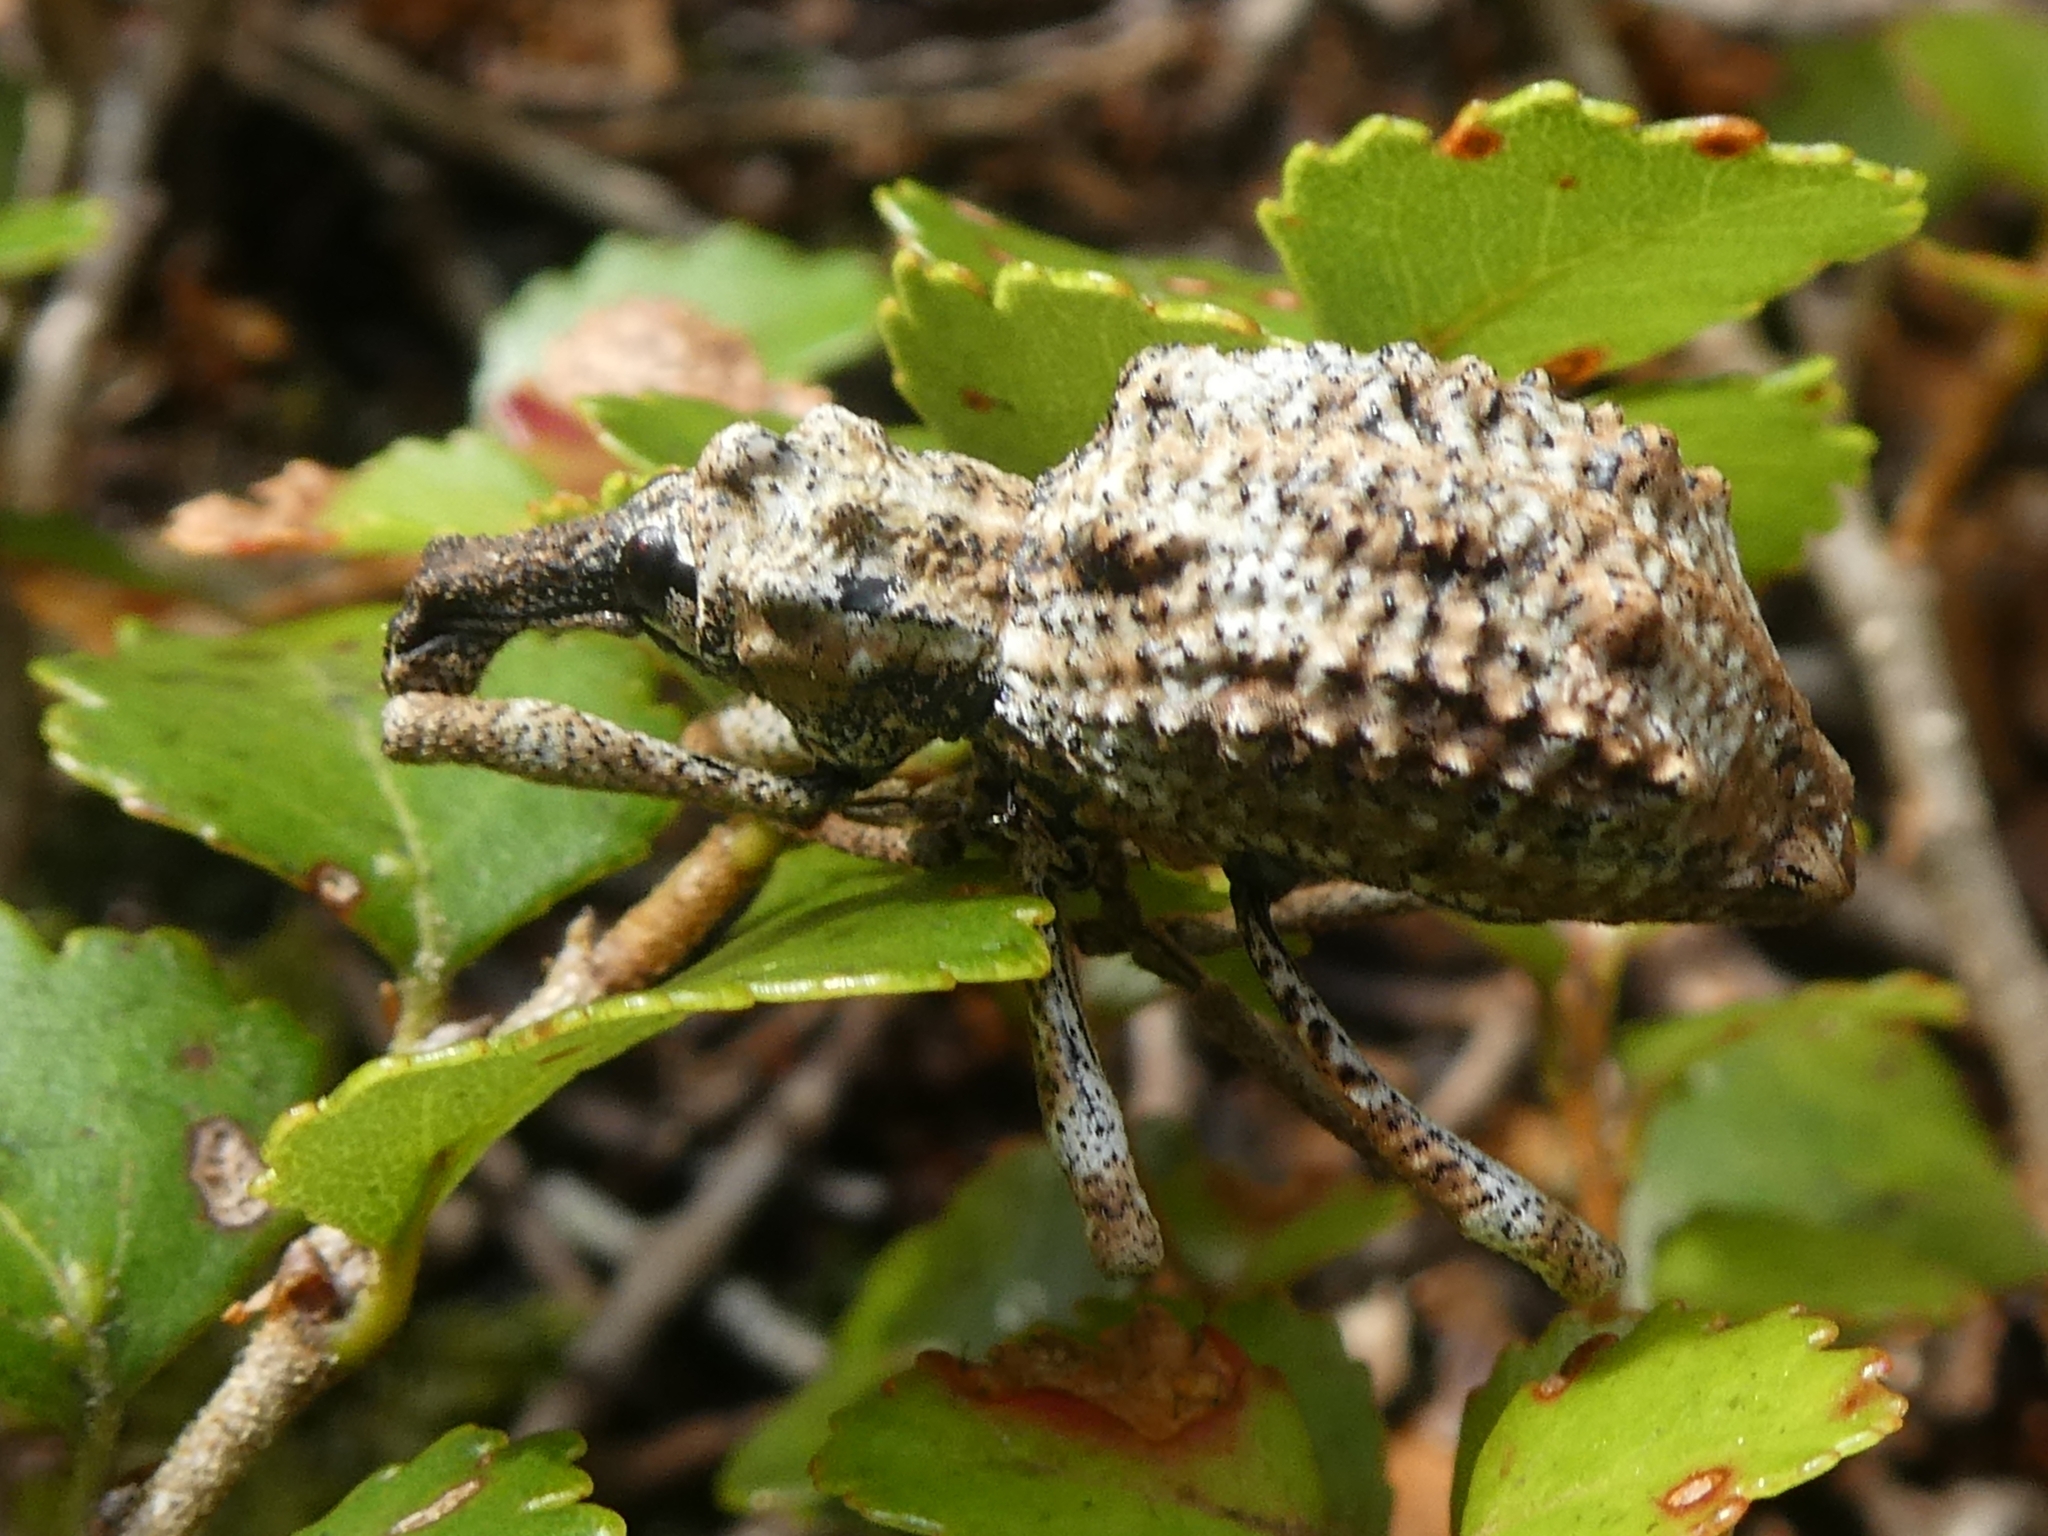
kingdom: Animalia
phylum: Arthropoda
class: Insecta
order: Coleoptera
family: Curculionidae
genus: Anagotus
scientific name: Anagotus helmsi
